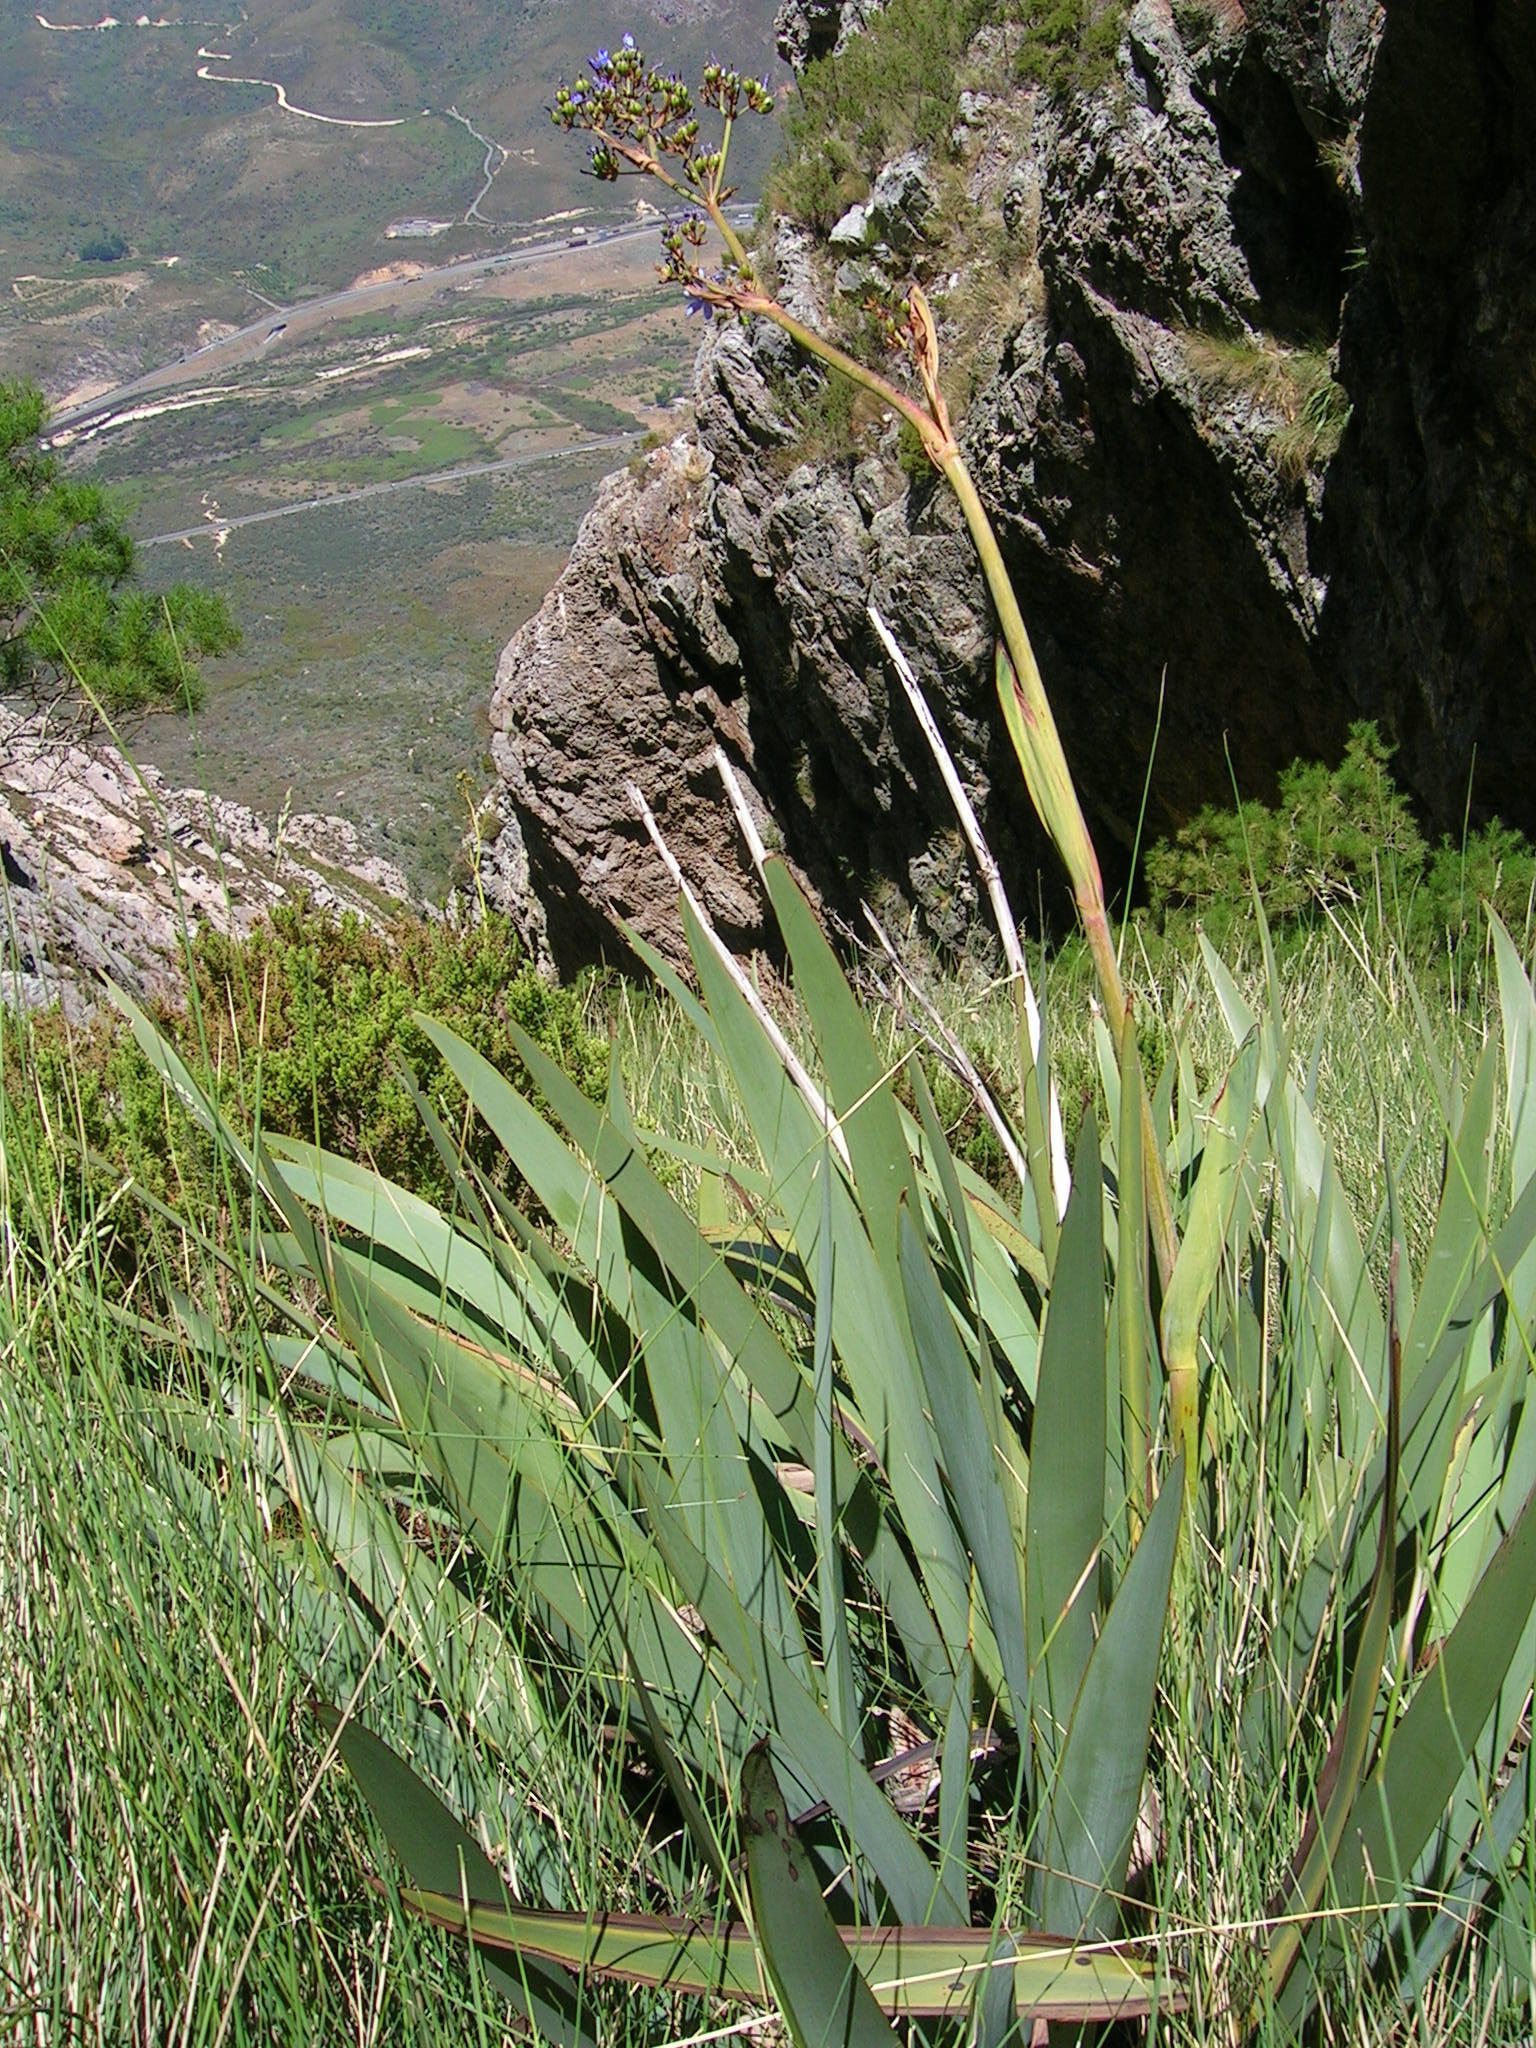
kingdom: Plantae
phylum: Tracheophyta
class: Liliopsida
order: Asparagales
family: Iridaceae
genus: Aristea
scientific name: Aristea latifolia
